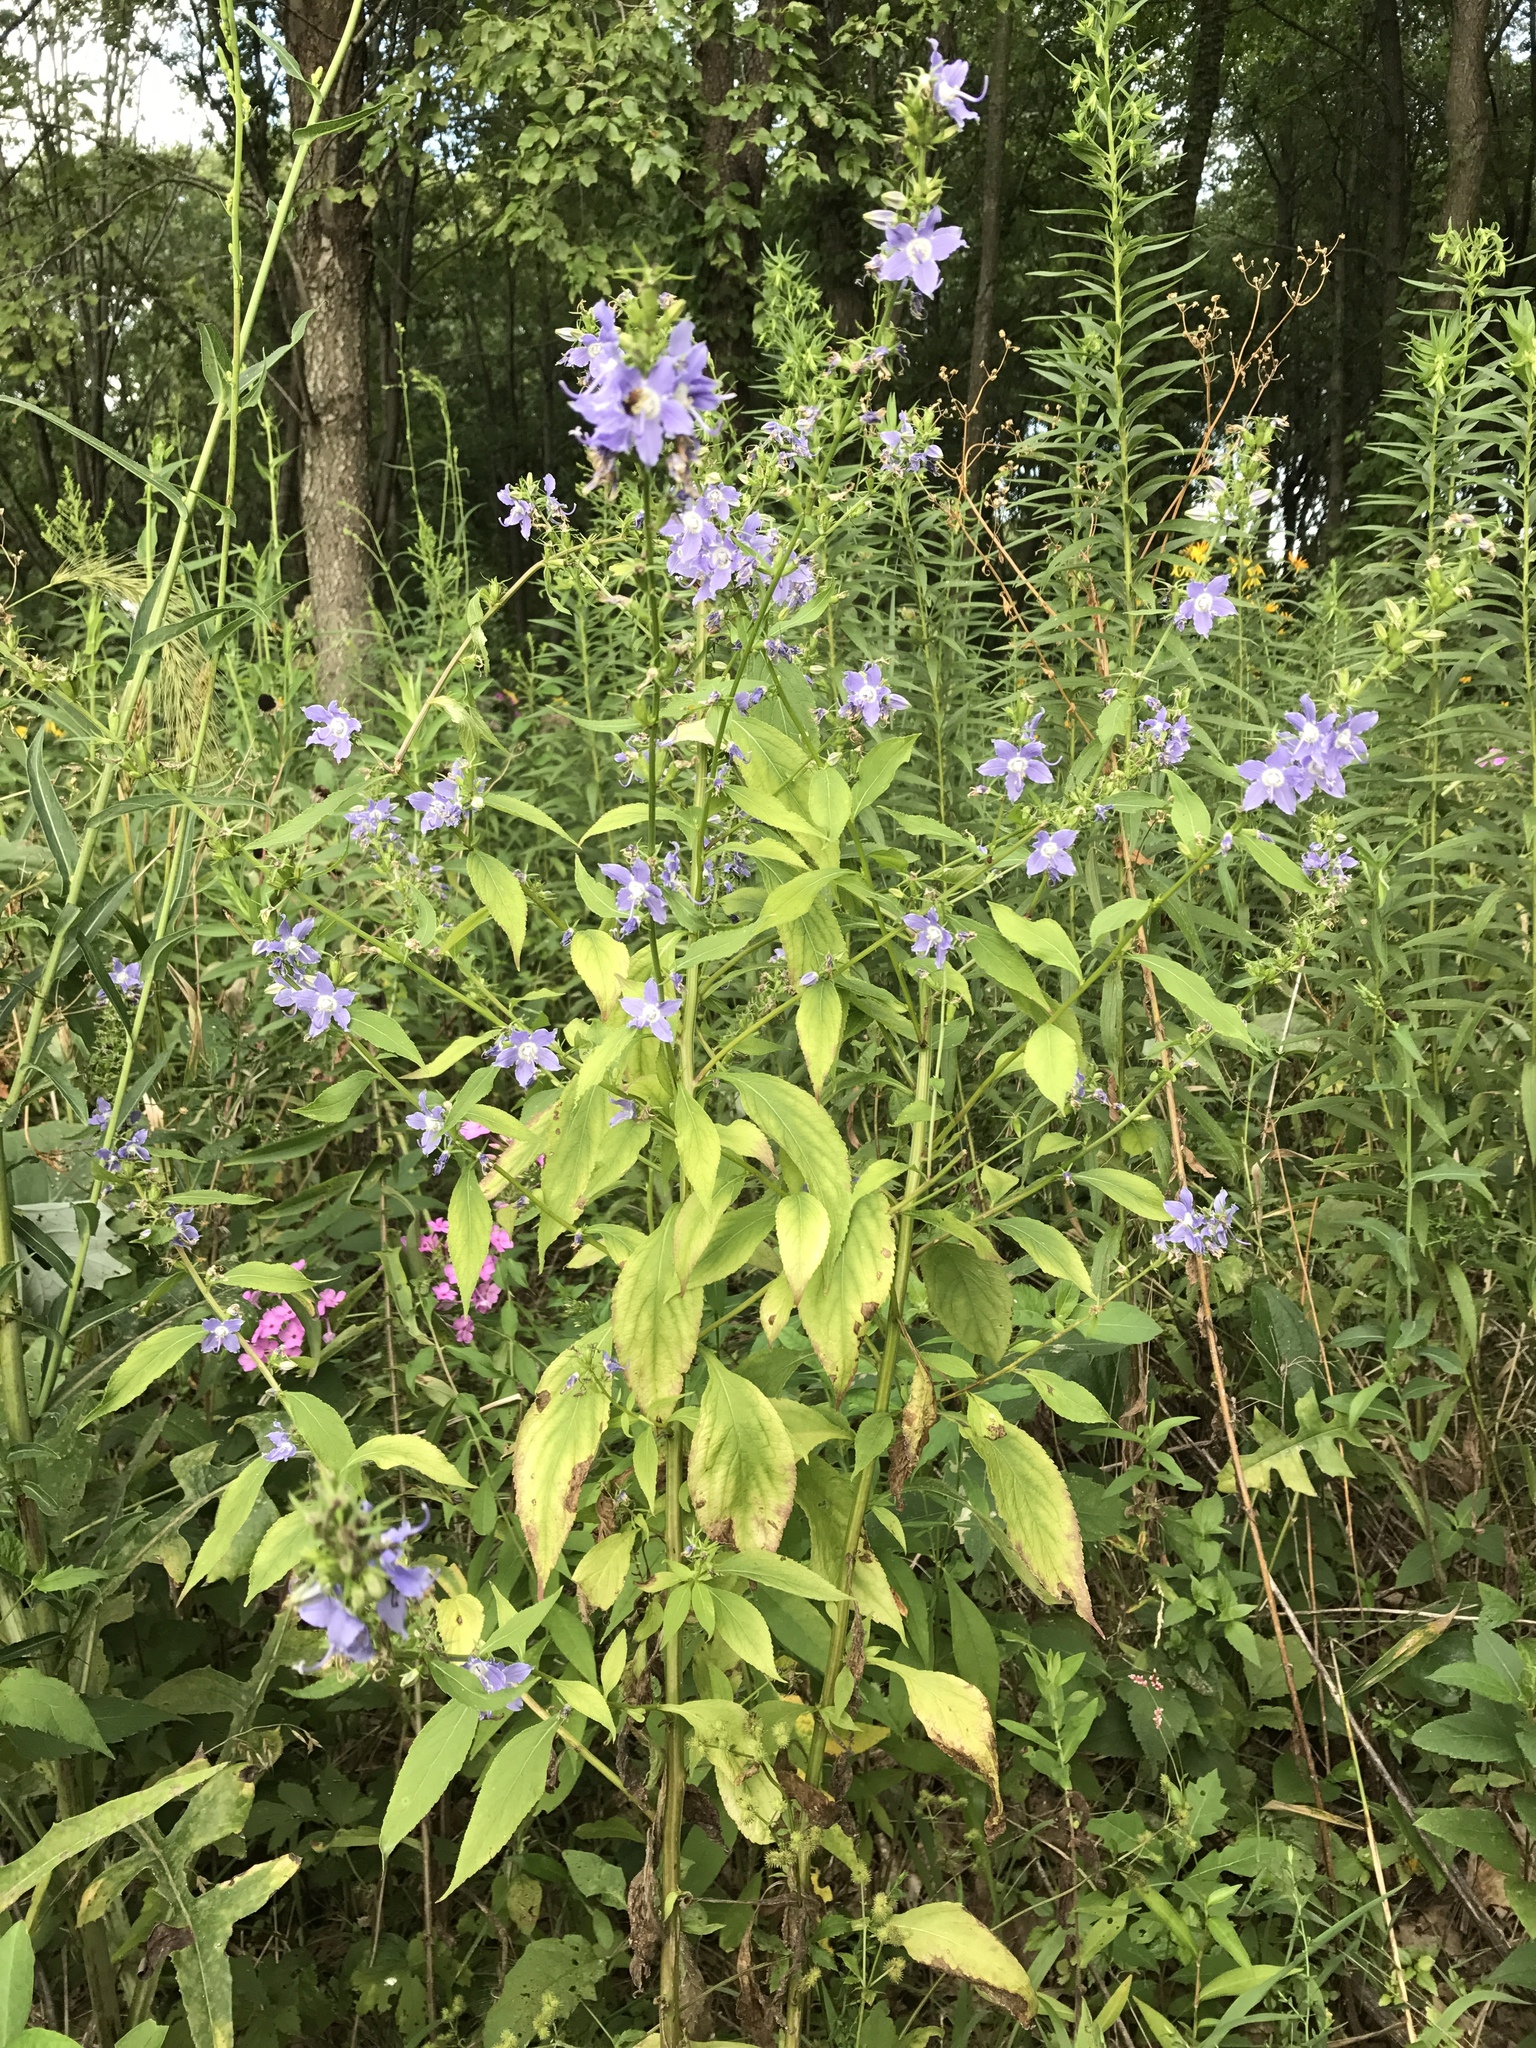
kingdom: Plantae
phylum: Tracheophyta
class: Magnoliopsida
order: Asterales
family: Campanulaceae
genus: Campanulastrum
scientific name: Campanulastrum americanum
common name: American bellflower
